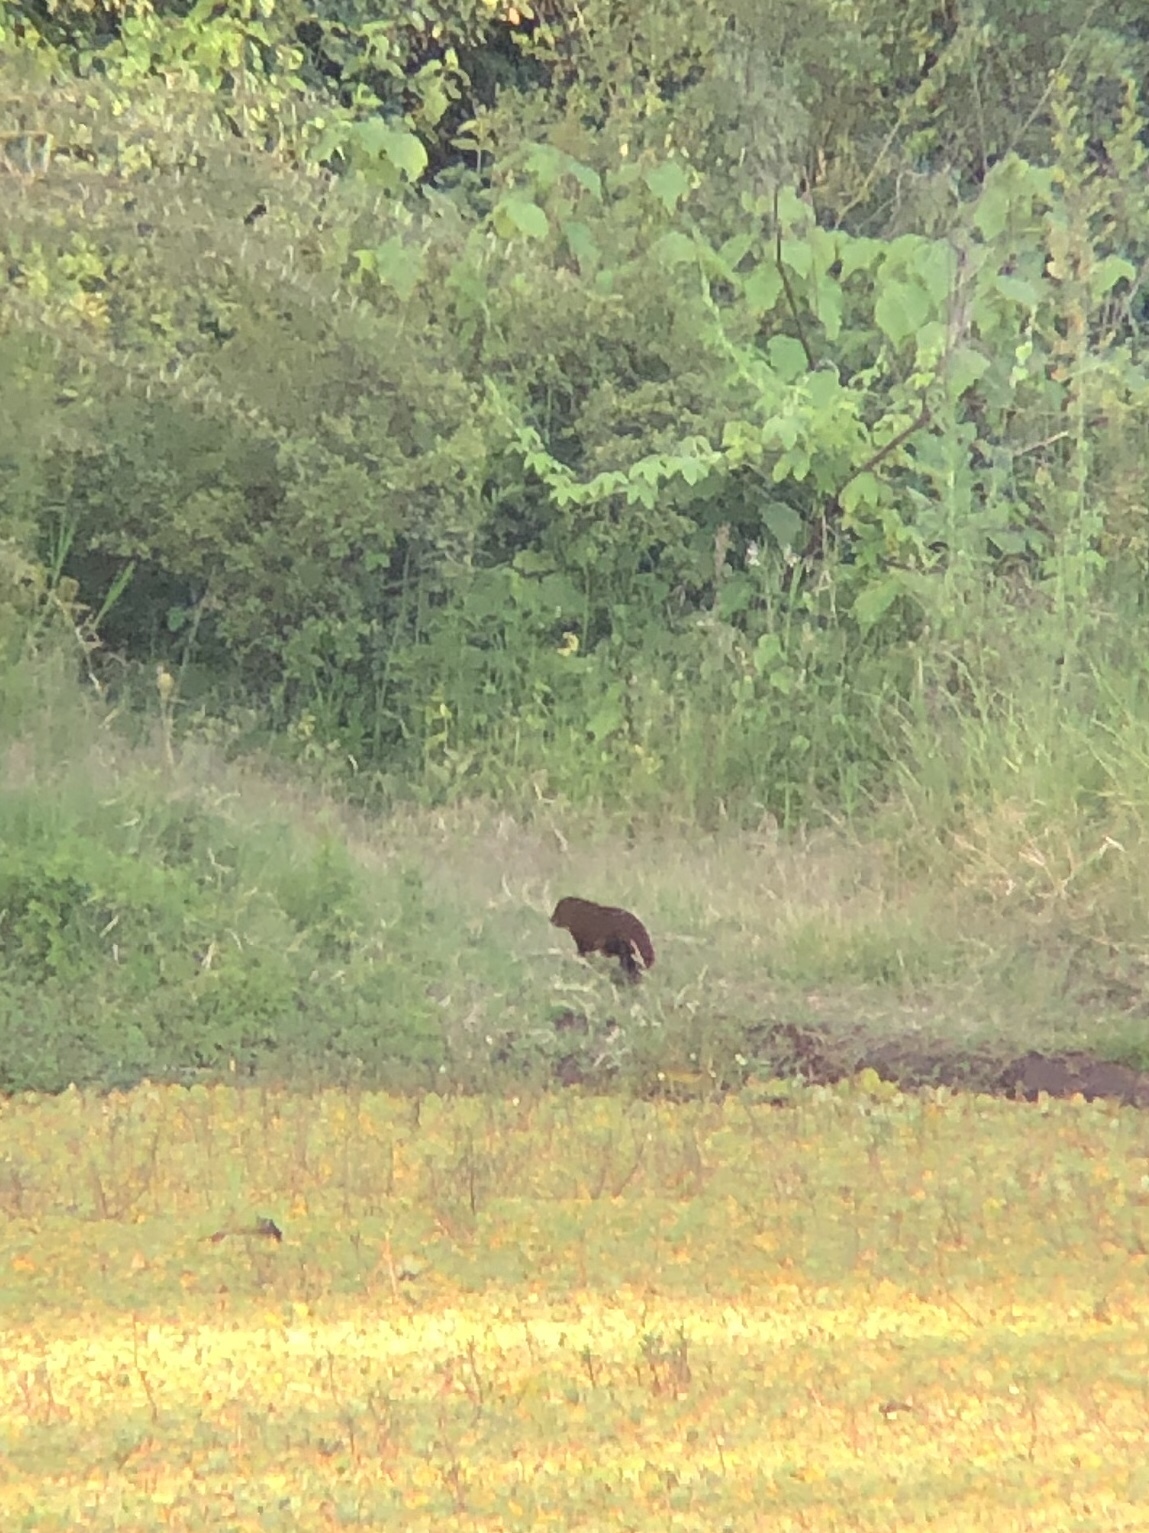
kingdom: Animalia
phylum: Chordata
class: Mammalia
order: Carnivora
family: Herpestidae
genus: Atilax
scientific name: Atilax paludinosus
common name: Marsh mongoose
